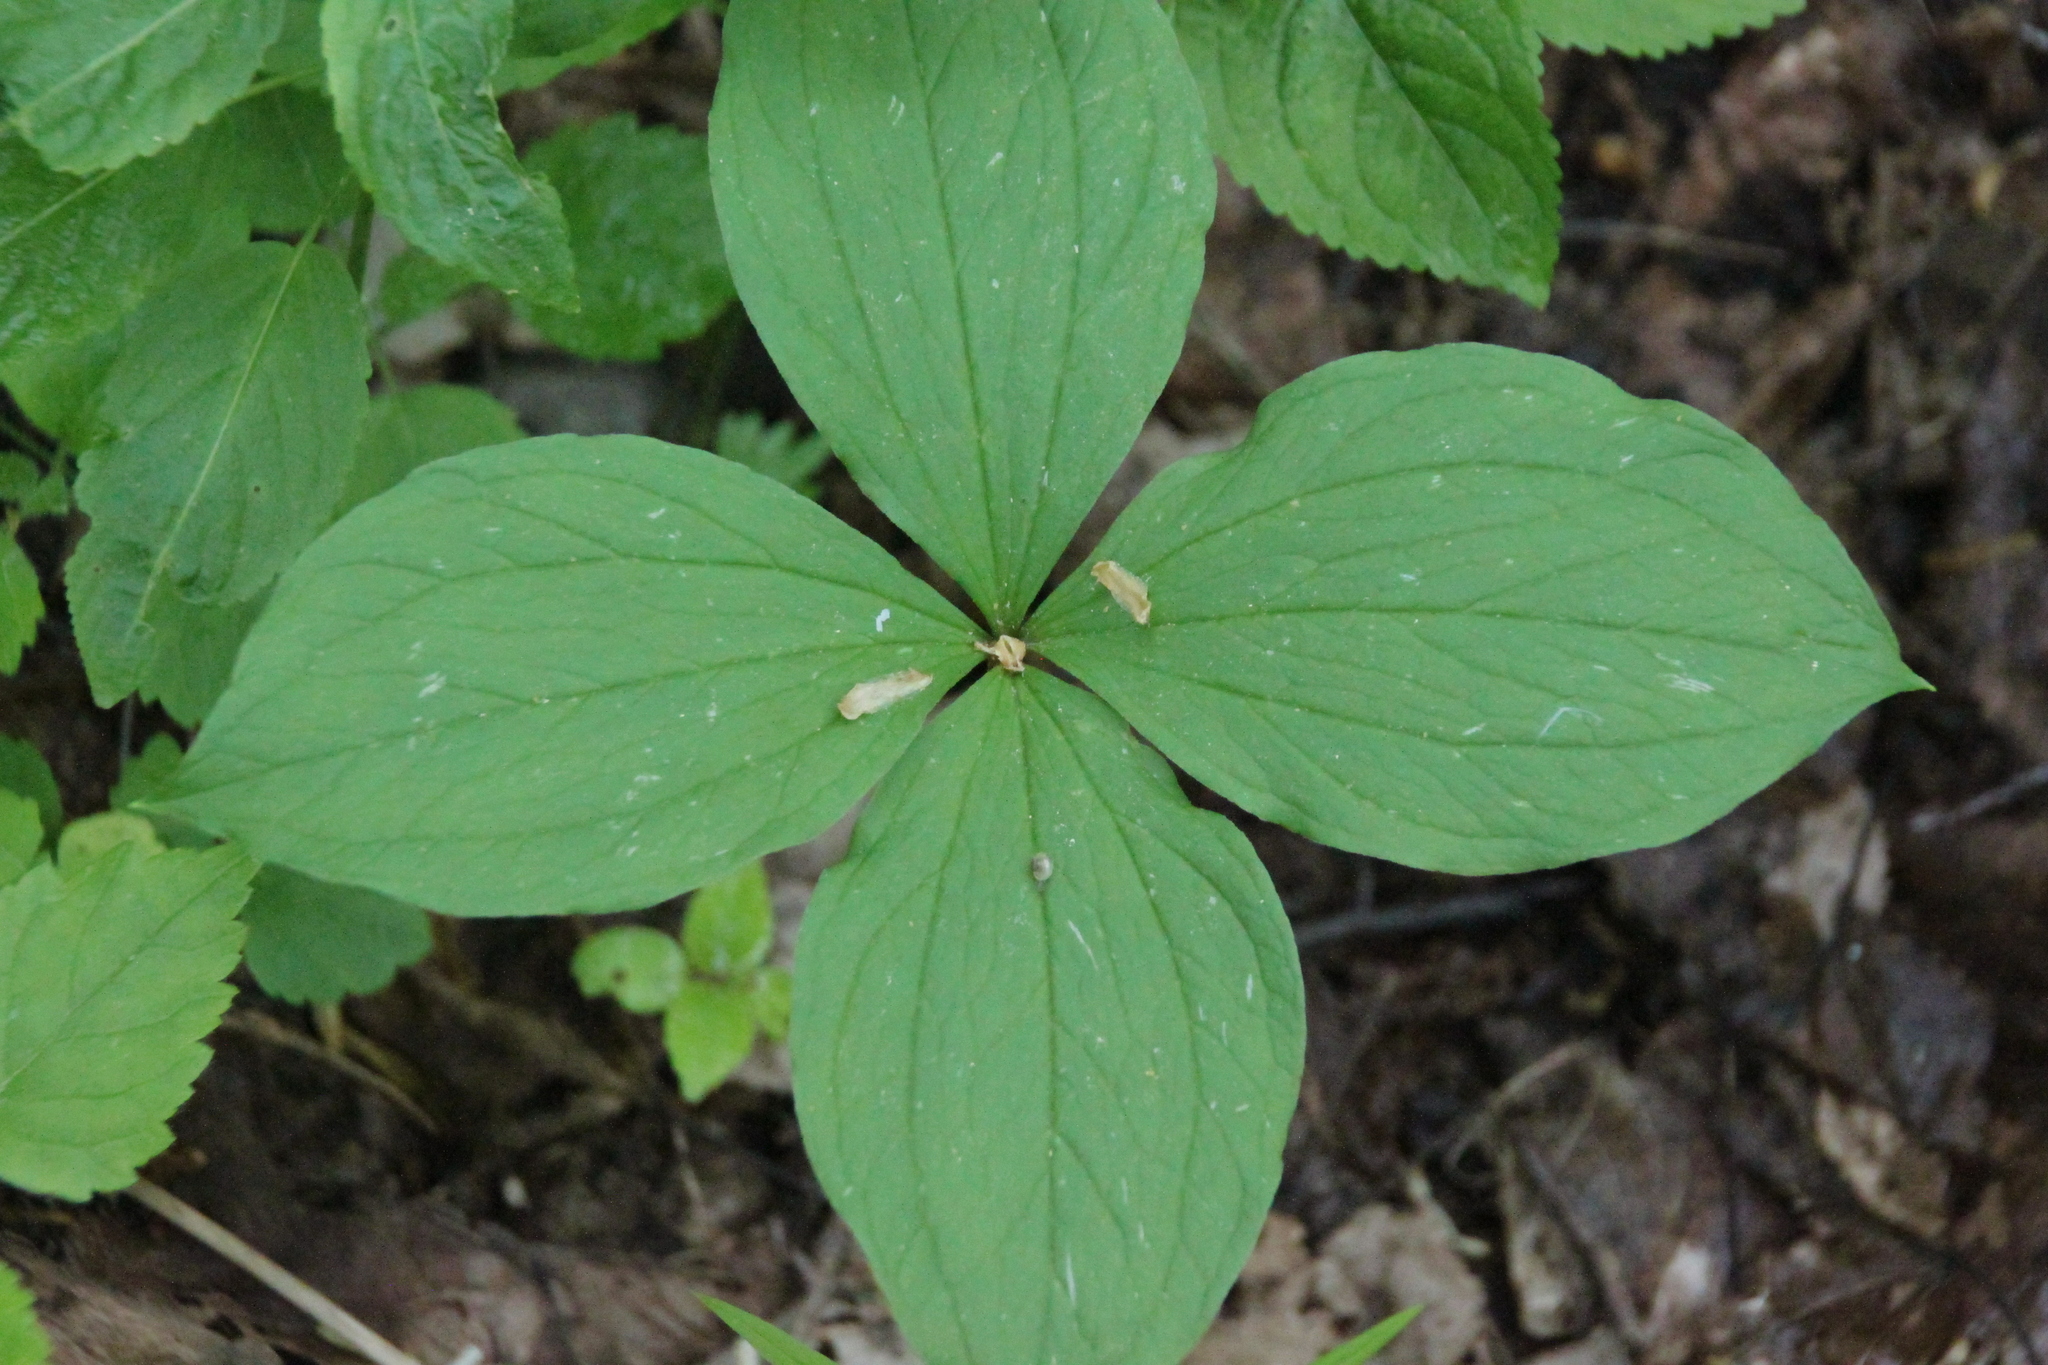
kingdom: Plantae
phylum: Tracheophyta
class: Liliopsida
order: Liliales
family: Melanthiaceae
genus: Paris
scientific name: Paris quadrifolia
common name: Herb-paris
